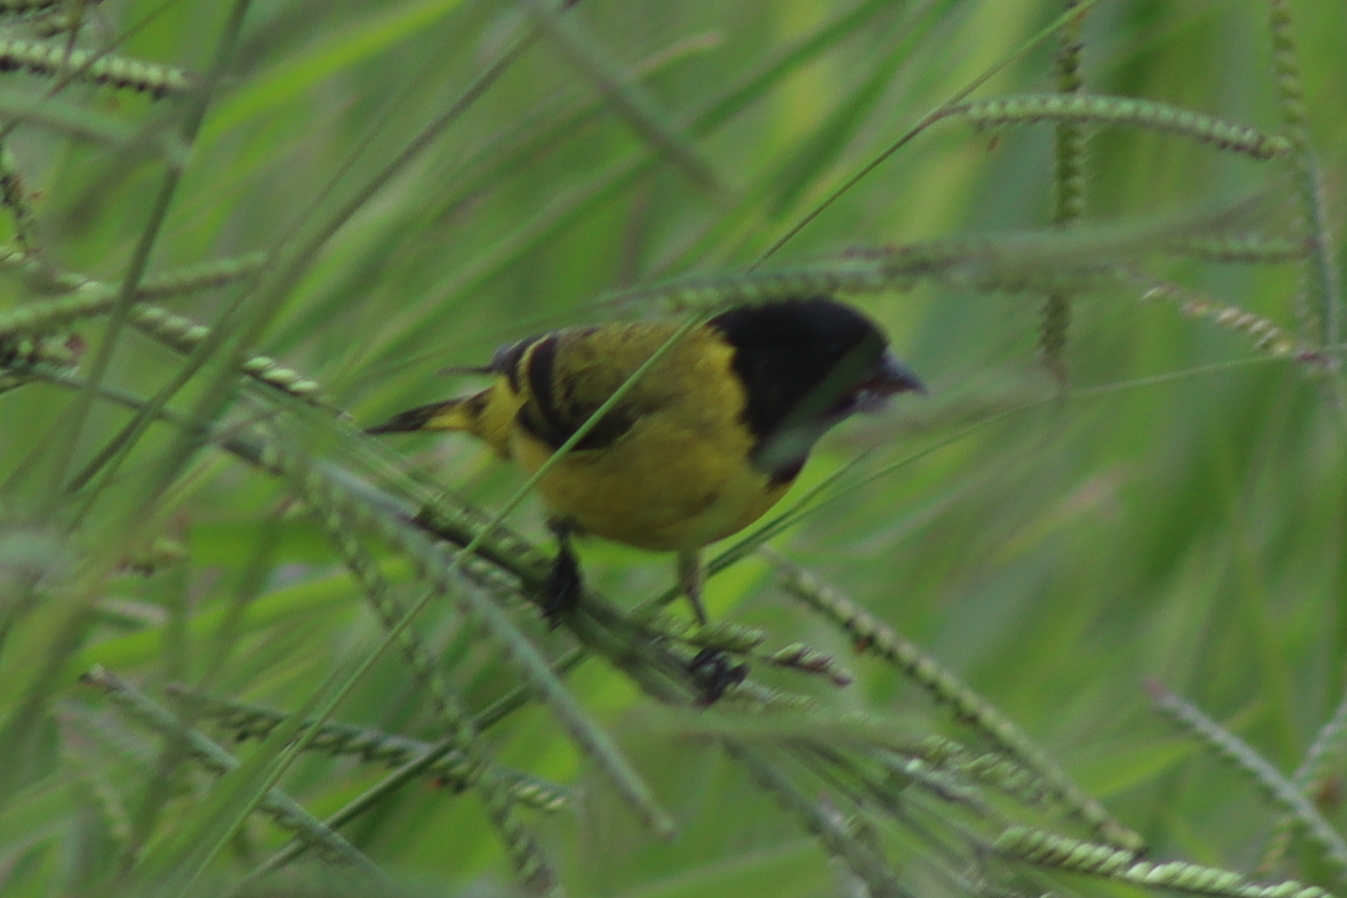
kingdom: Animalia
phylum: Chordata
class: Aves
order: Passeriformes
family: Fringillidae
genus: Spinus
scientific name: Spinus magellanicus
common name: Hooded siskin
